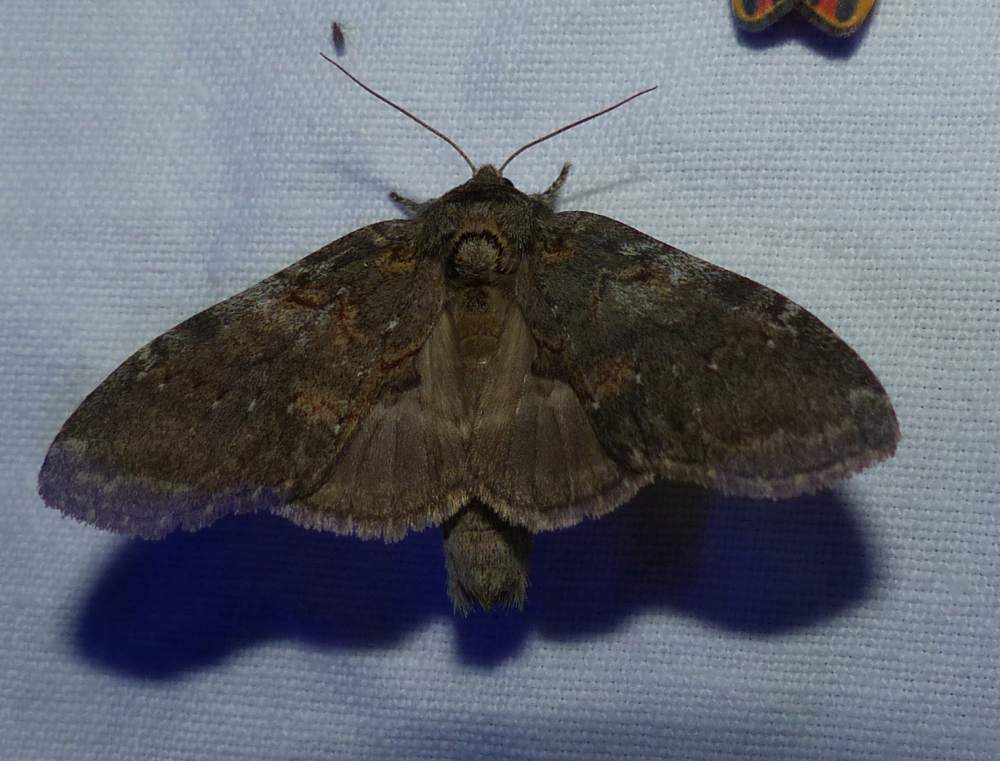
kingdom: Animalia
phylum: Arthropoda
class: Insecta
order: Lepidoptera
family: Notodontidae
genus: Peridea
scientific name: Peridea angulosa
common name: Angulose prominent
